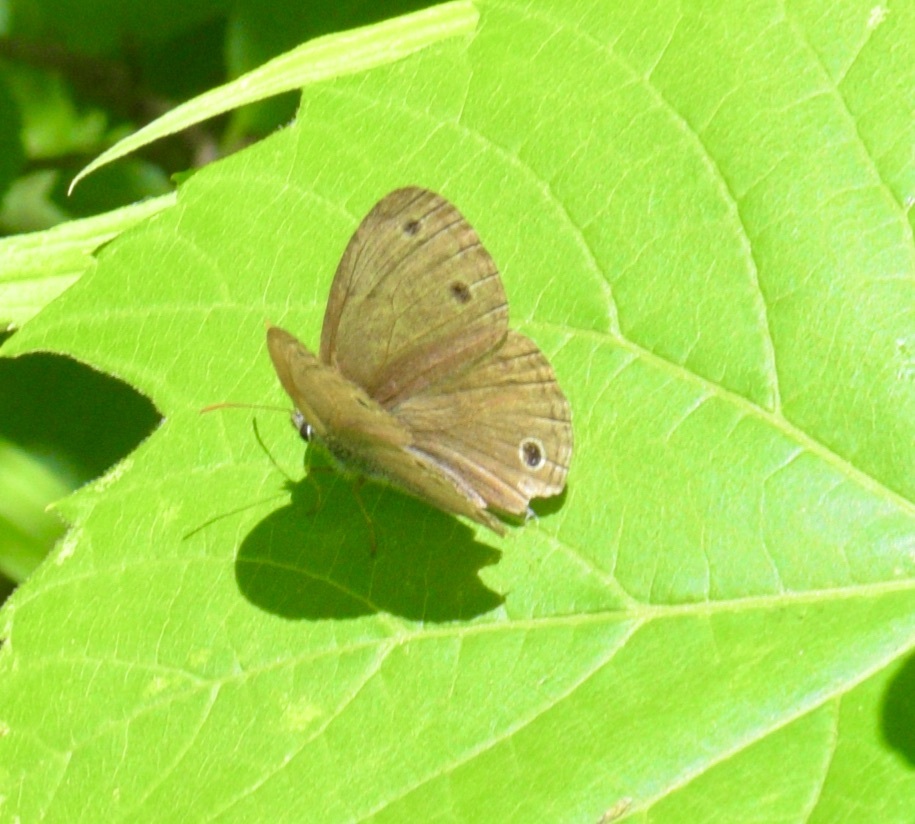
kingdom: Animalia
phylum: Arthropoda
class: Insecta
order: Lepidoptera
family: Nymphalidae
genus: Euptychia
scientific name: Euptychia cymela
